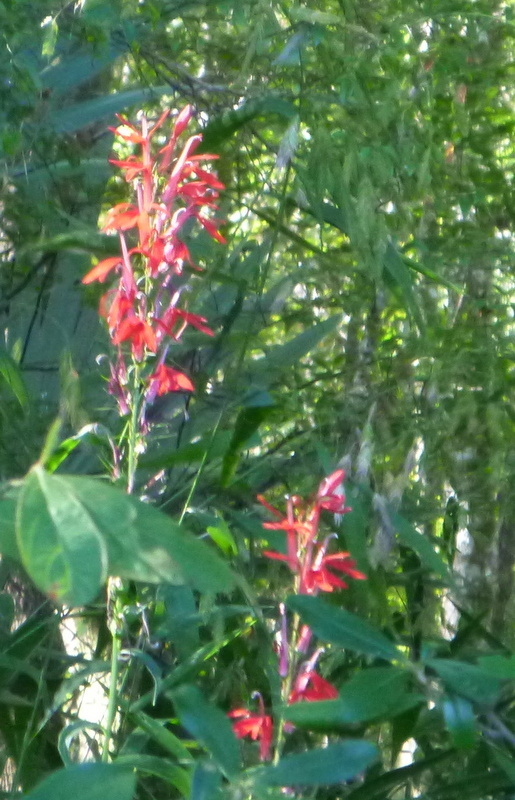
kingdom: Plantae
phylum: Tracheophyta
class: Magnoliopsida
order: Asterales
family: Campanulaceae
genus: Lobelia
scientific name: Lobelia cardinalis
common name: Cardinal flower
